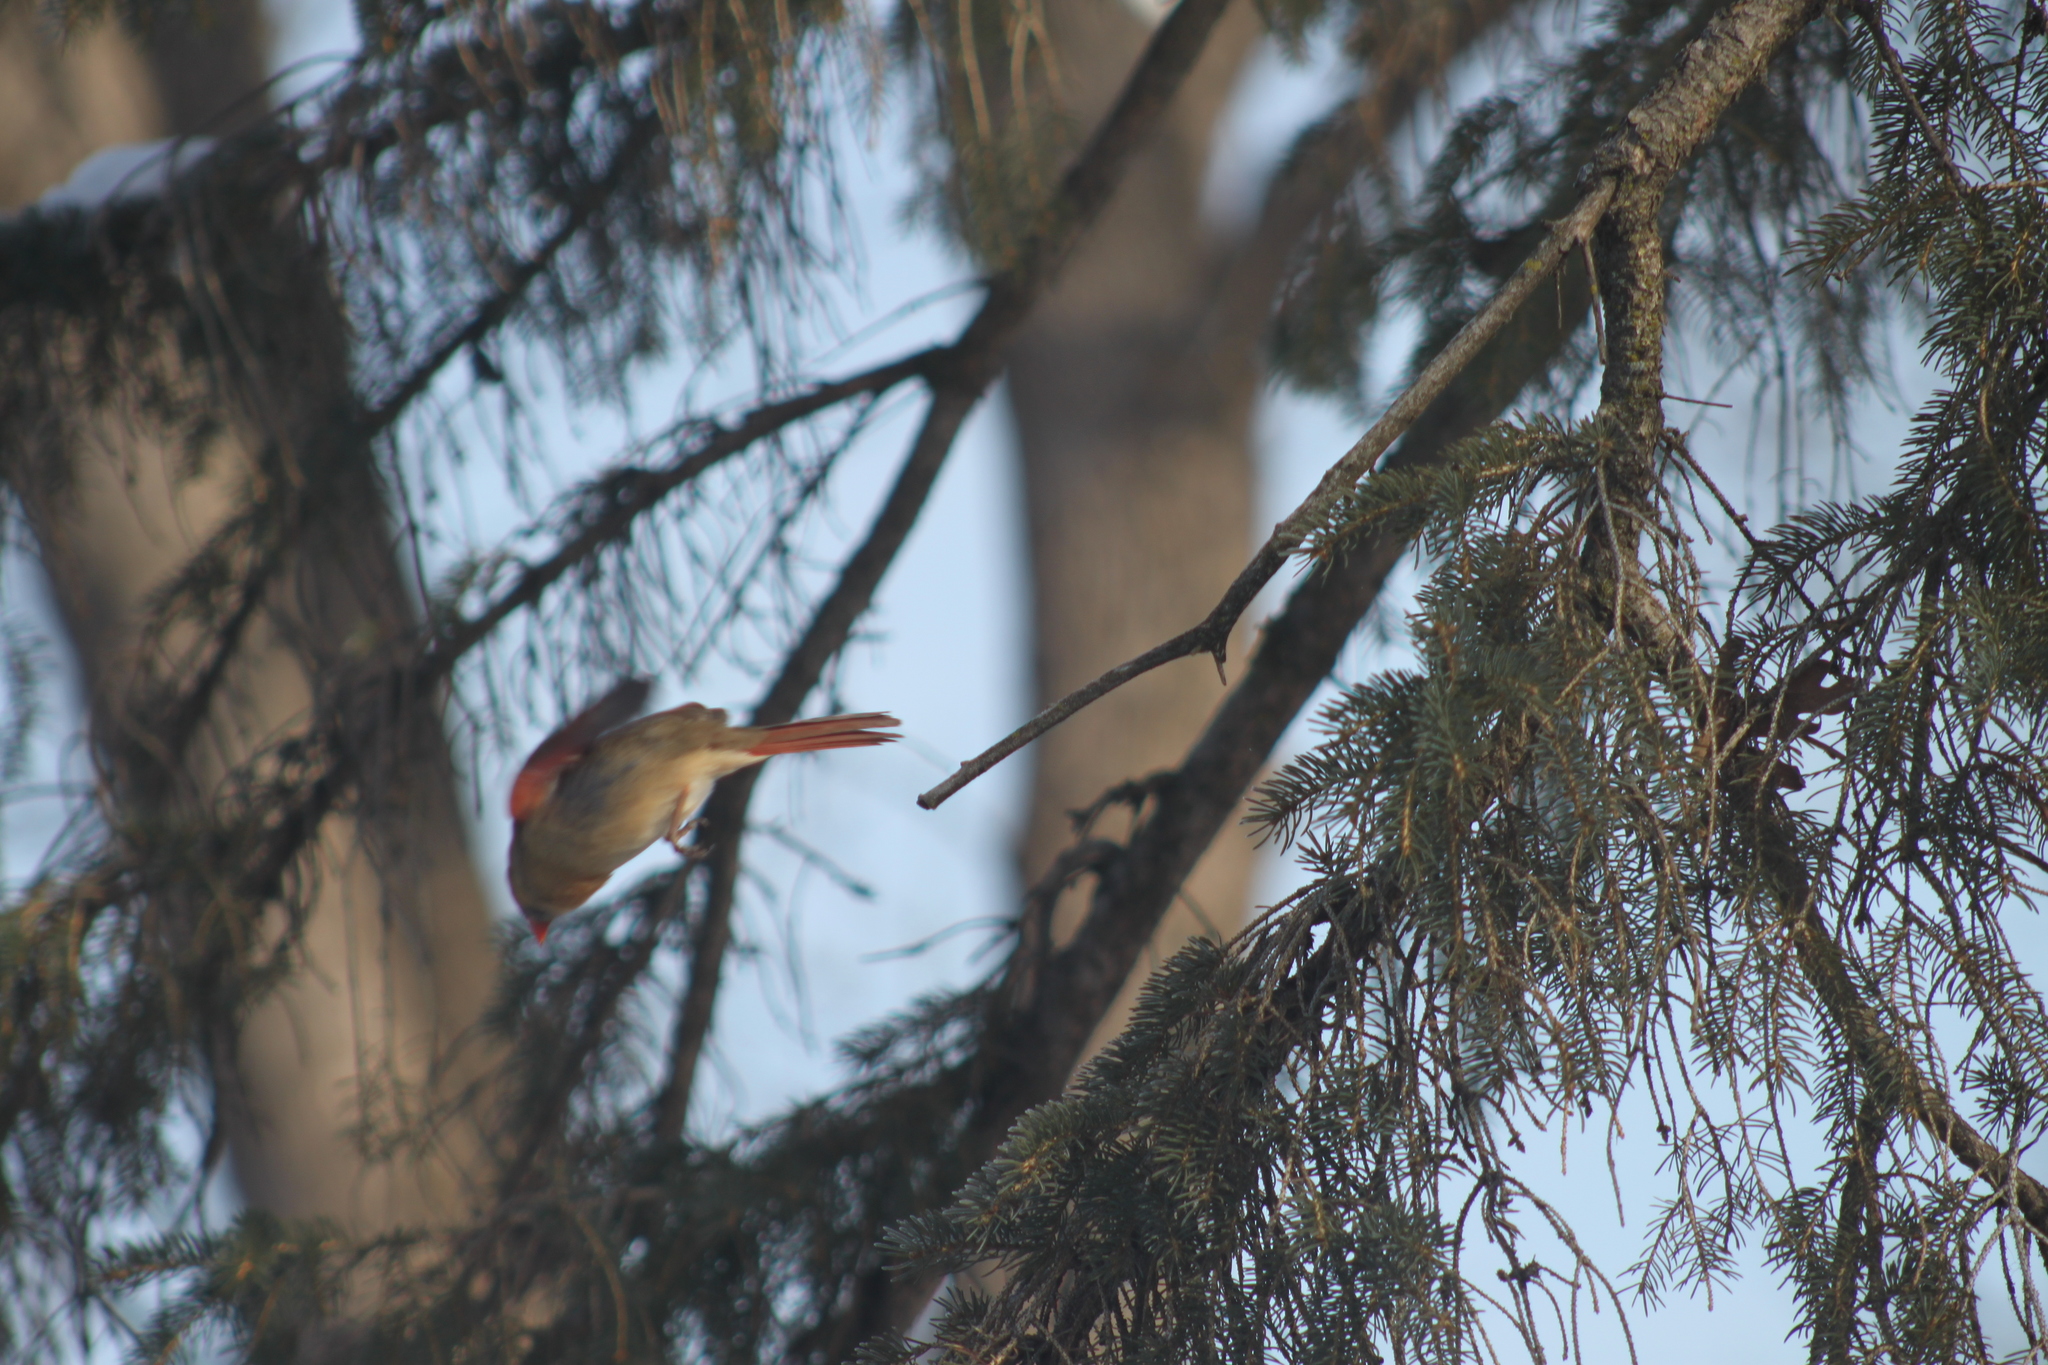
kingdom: Animalia
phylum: Chordata
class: Aves
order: Passeriformes
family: Cardinalidae
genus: Cardinalis
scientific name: Cardinalis cardinalis
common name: Northern cardinal
